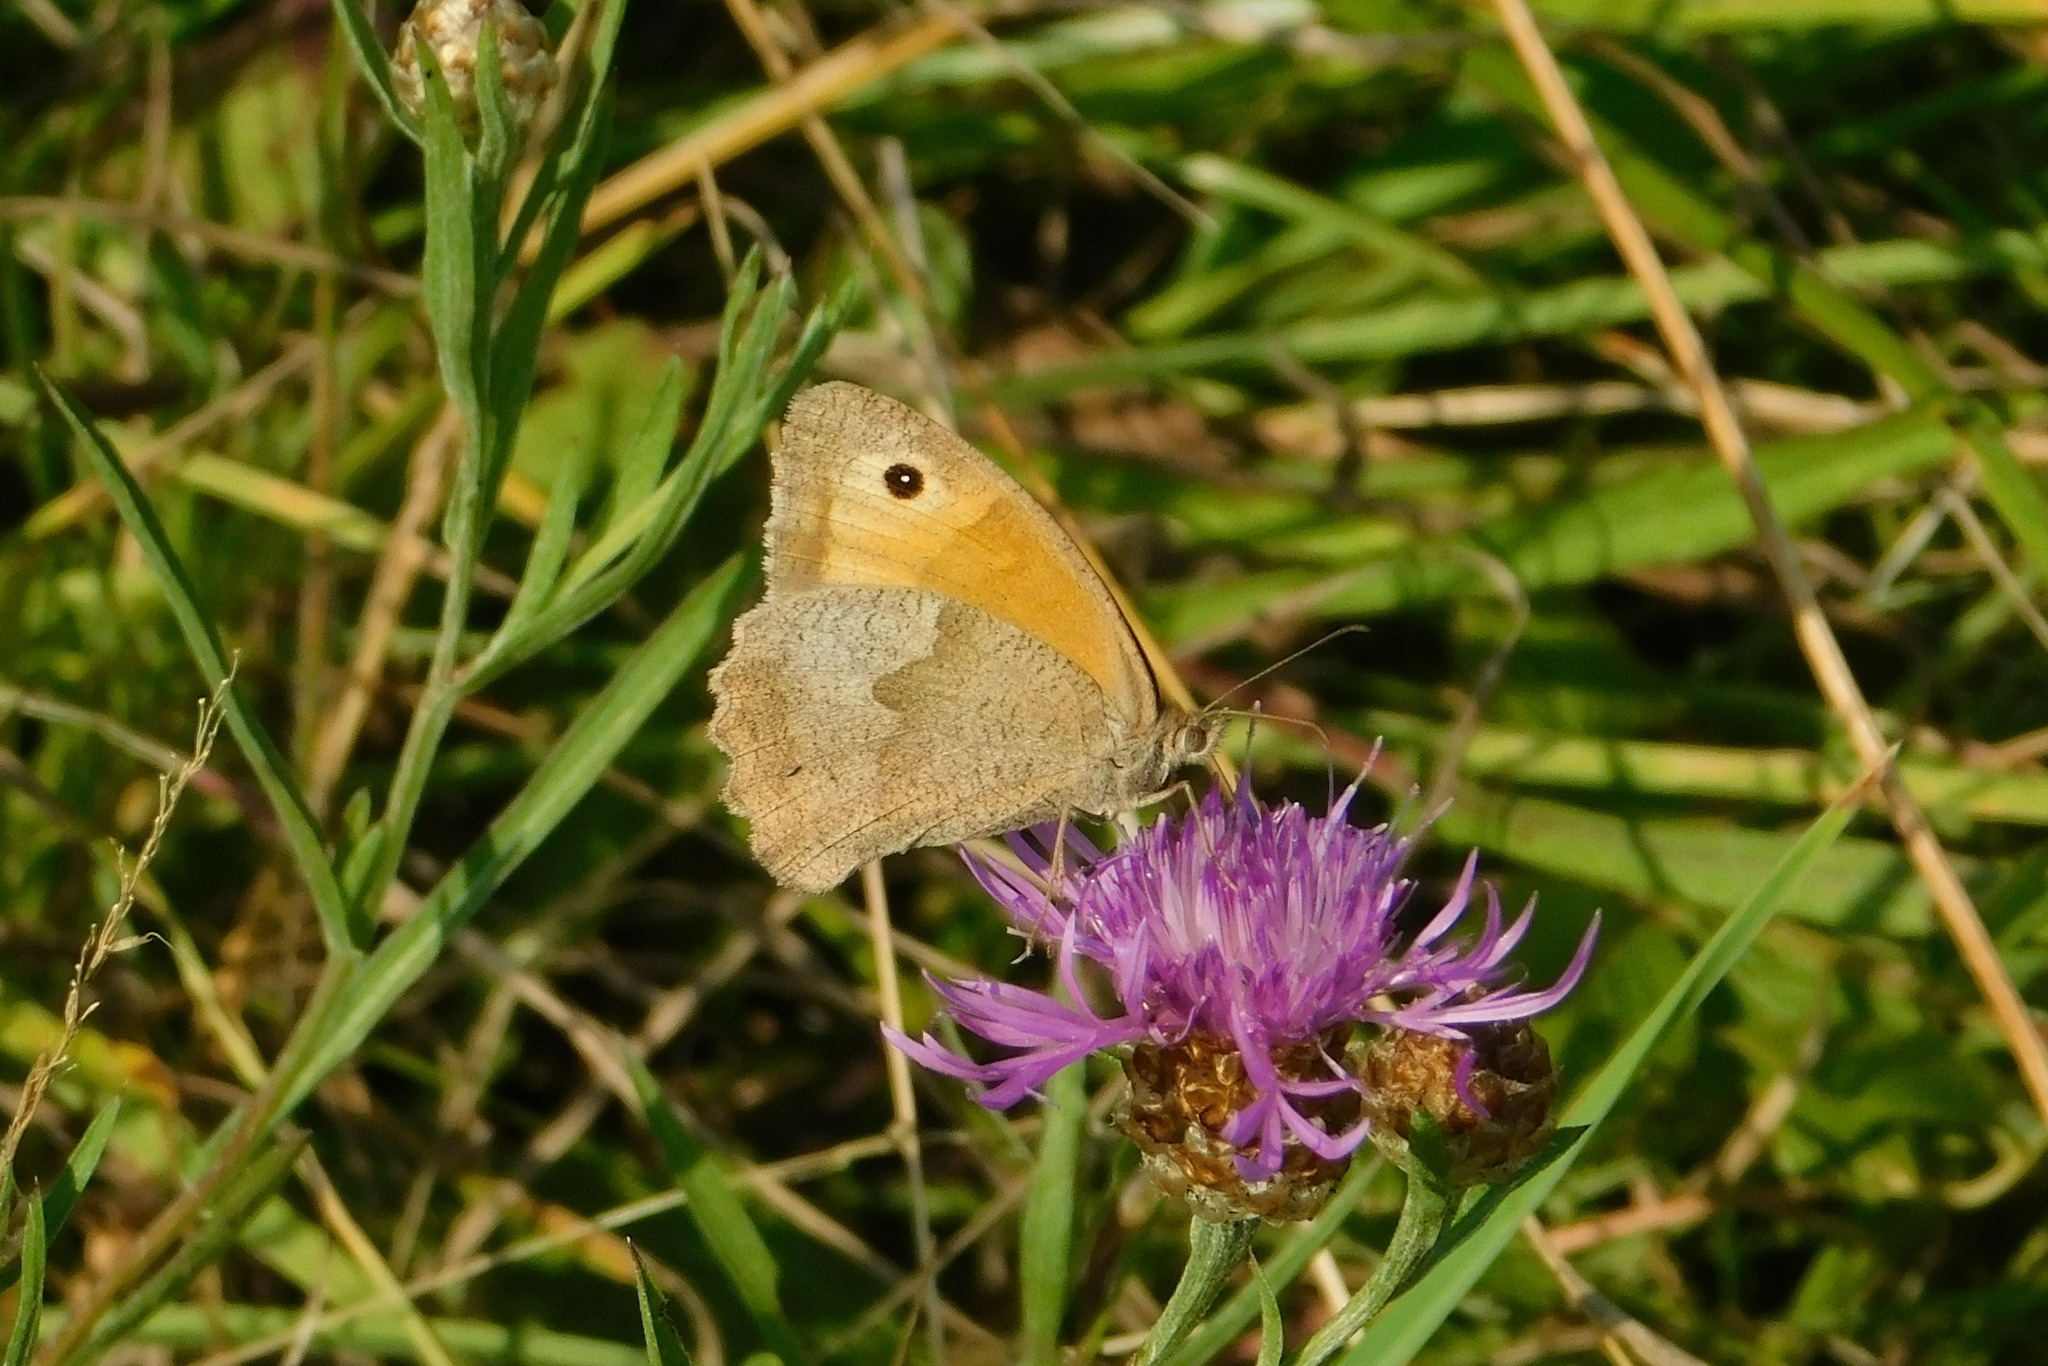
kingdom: Animalia
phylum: Arthropoda
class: Insecta
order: Lepidoptera
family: Nymphalidae
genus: Maniola
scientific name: Maniola jurtina
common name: Meadow brown
